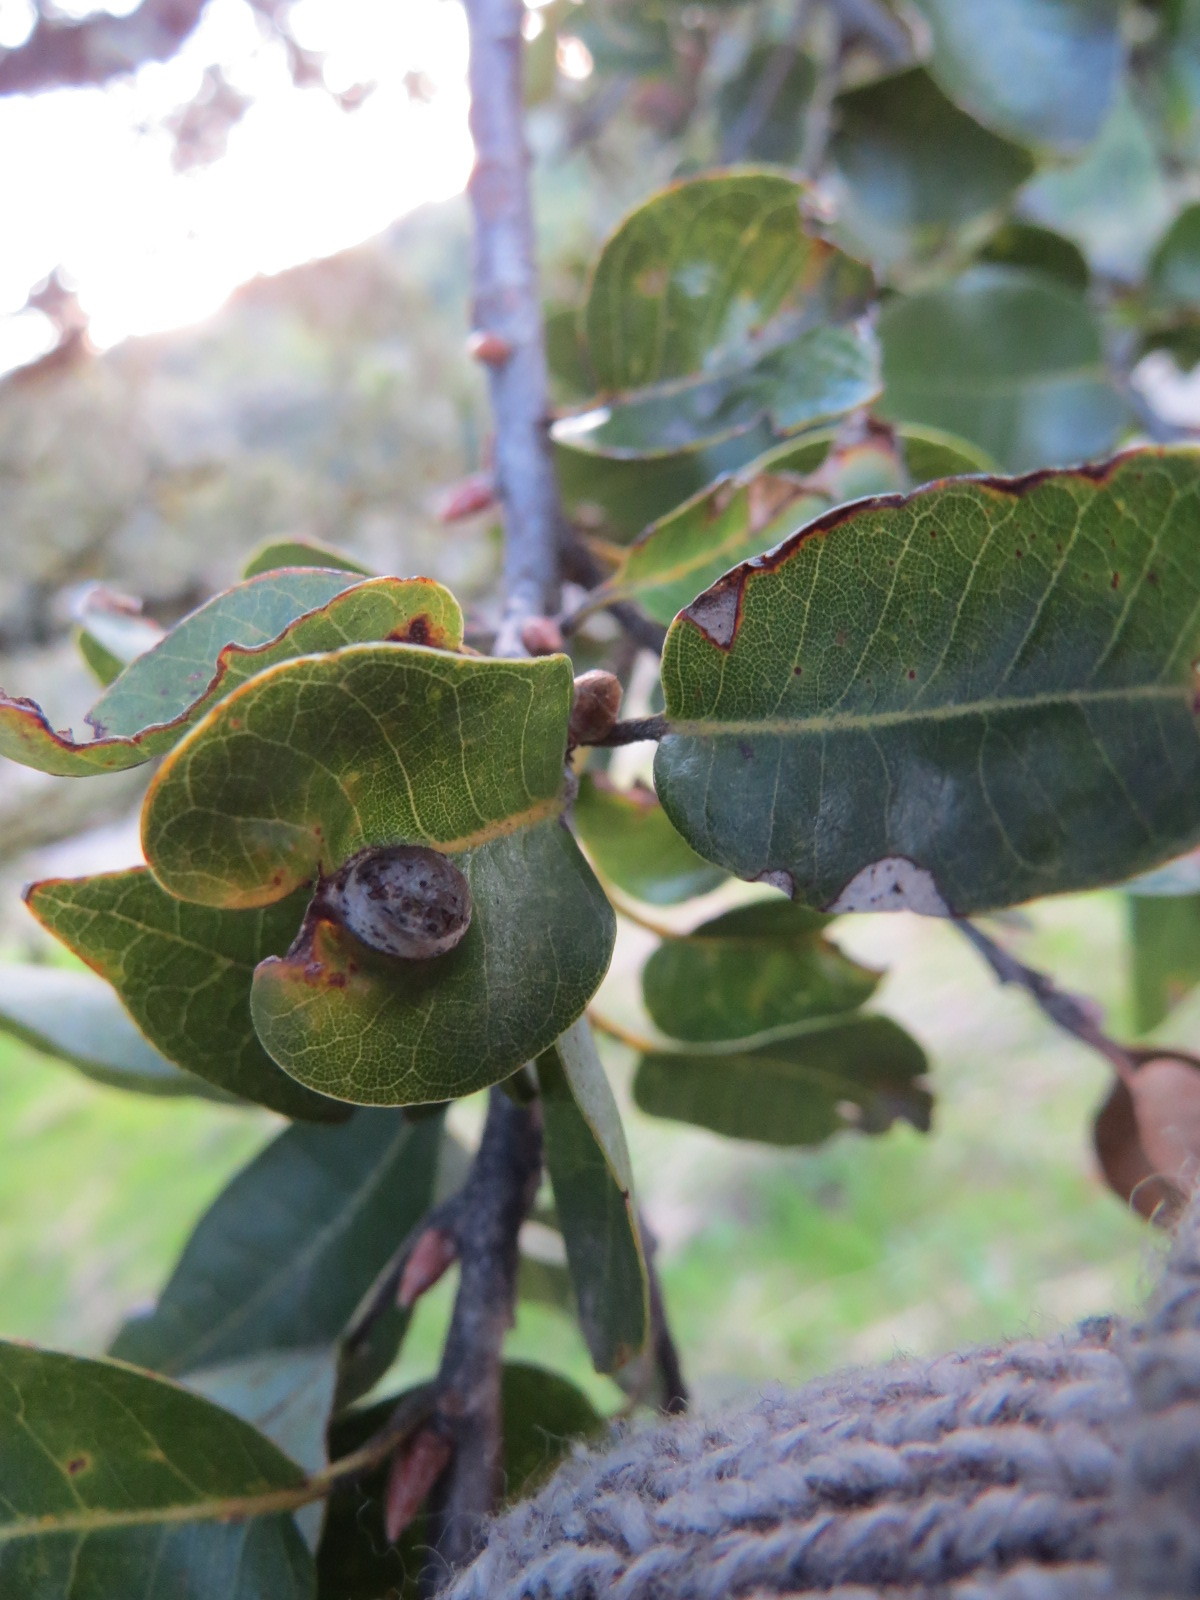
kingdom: Animalia
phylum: Arthropoda
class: Insecta
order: Hymenoptera
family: Cynipidae
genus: Heteroecus
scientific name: Heteroecus
